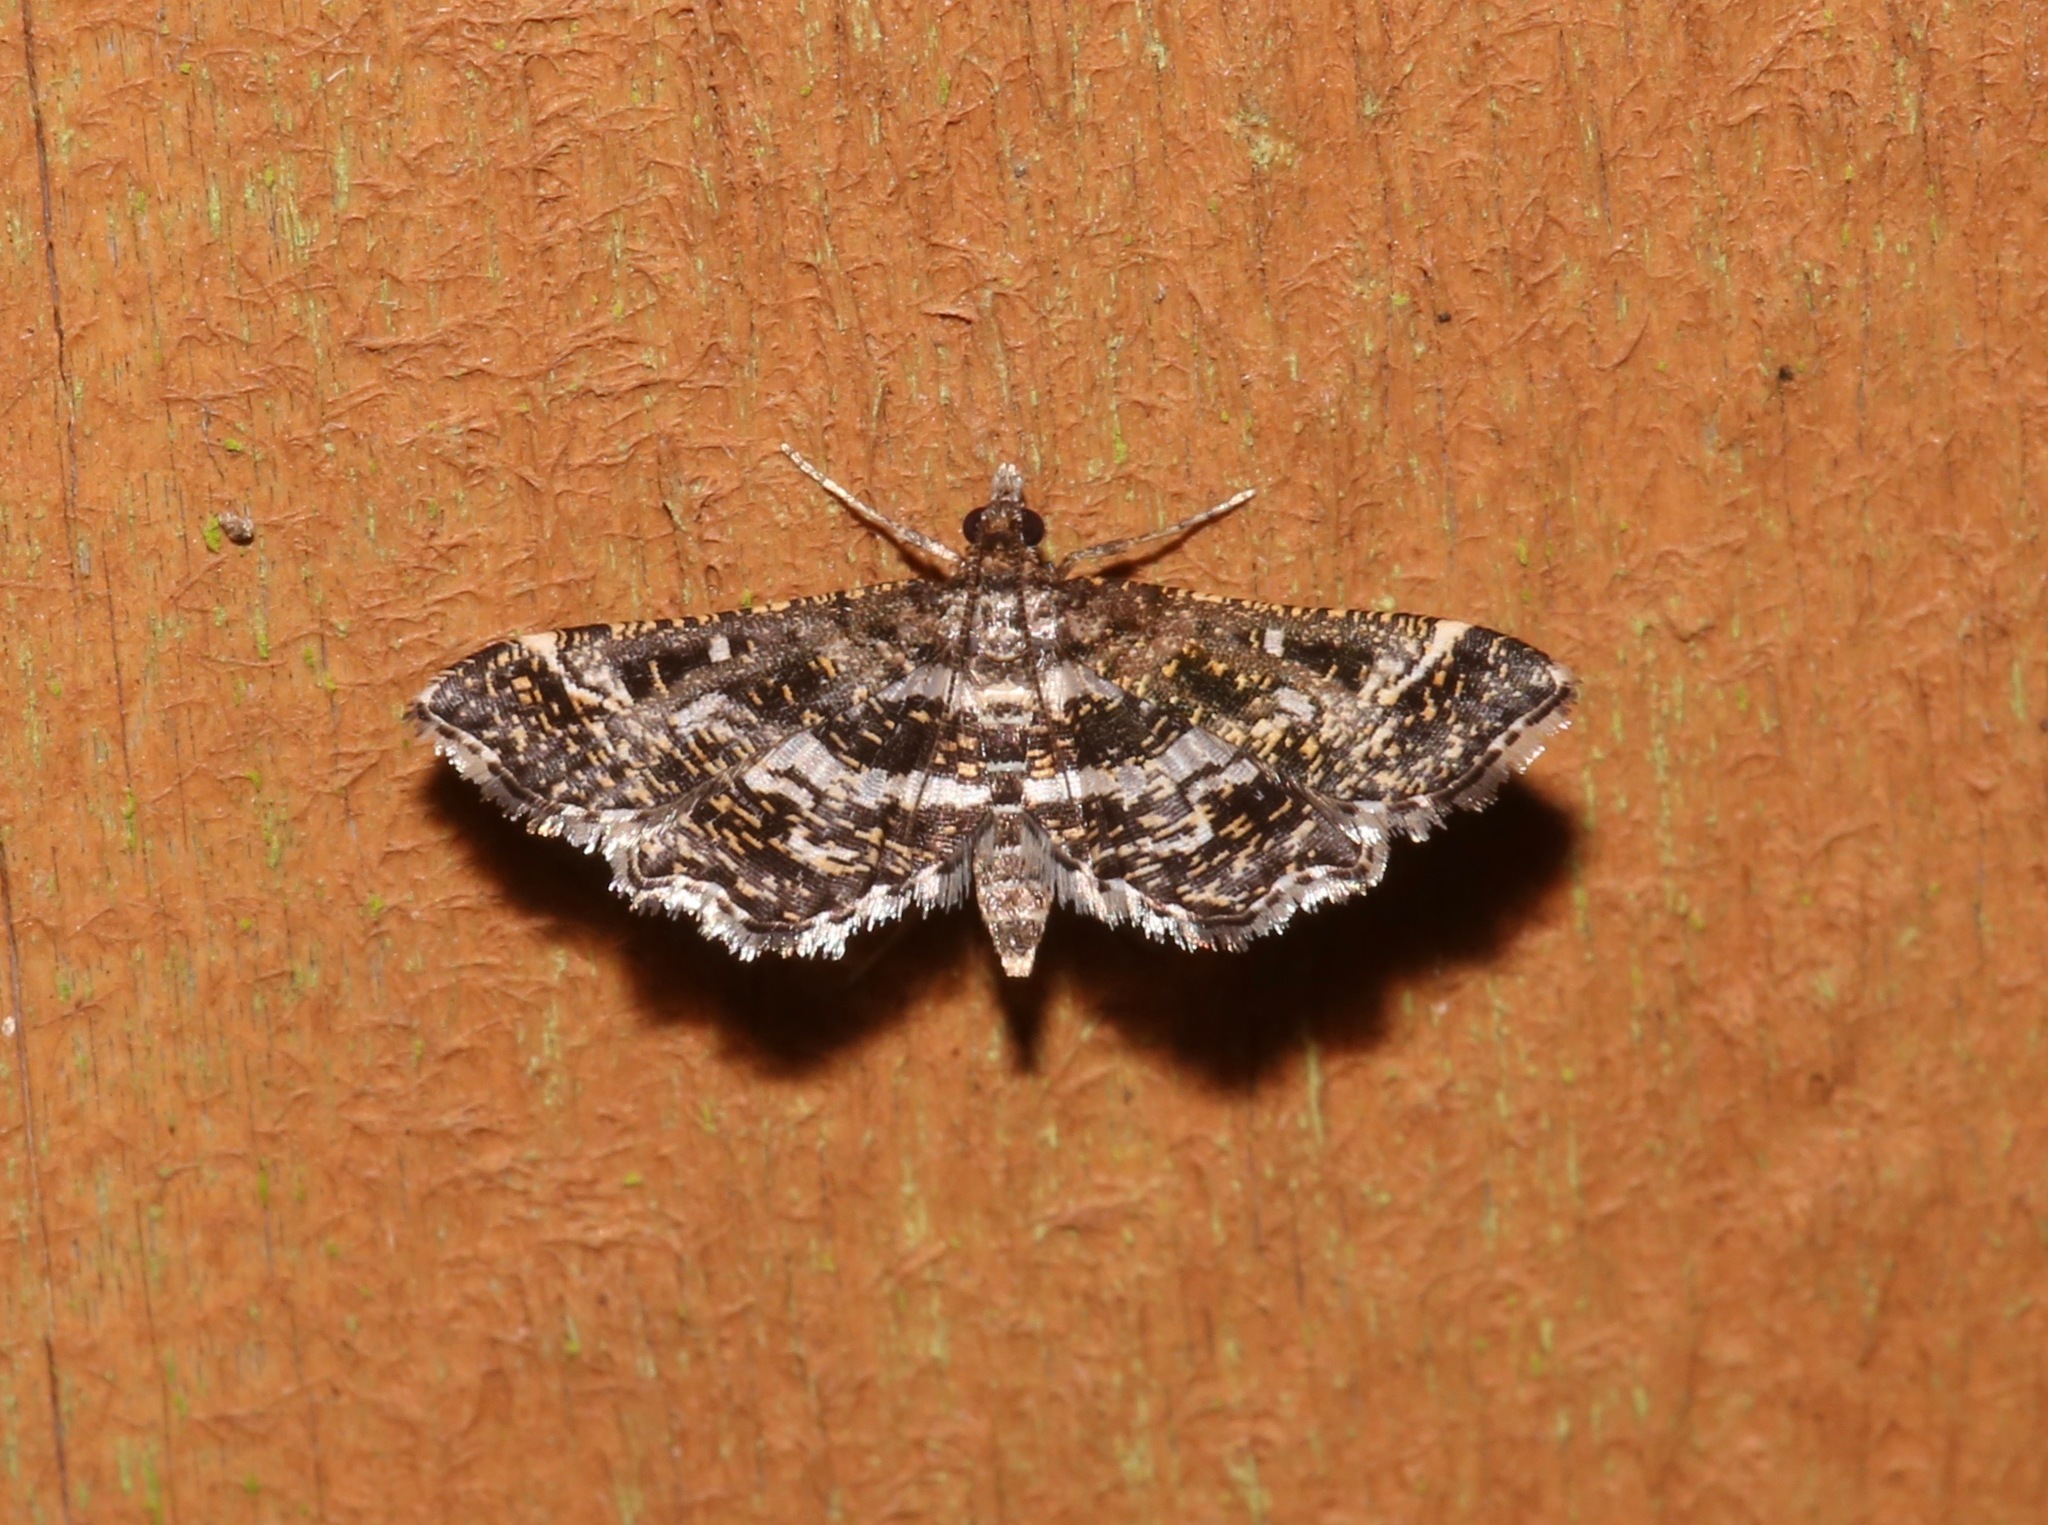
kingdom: Animalia
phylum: Arthropoda
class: Insecta
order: Lepidoptera
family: Crambidae
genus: Diasemiopsis
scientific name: Diasemiopsis ramburialis
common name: Vagrant china-mark
